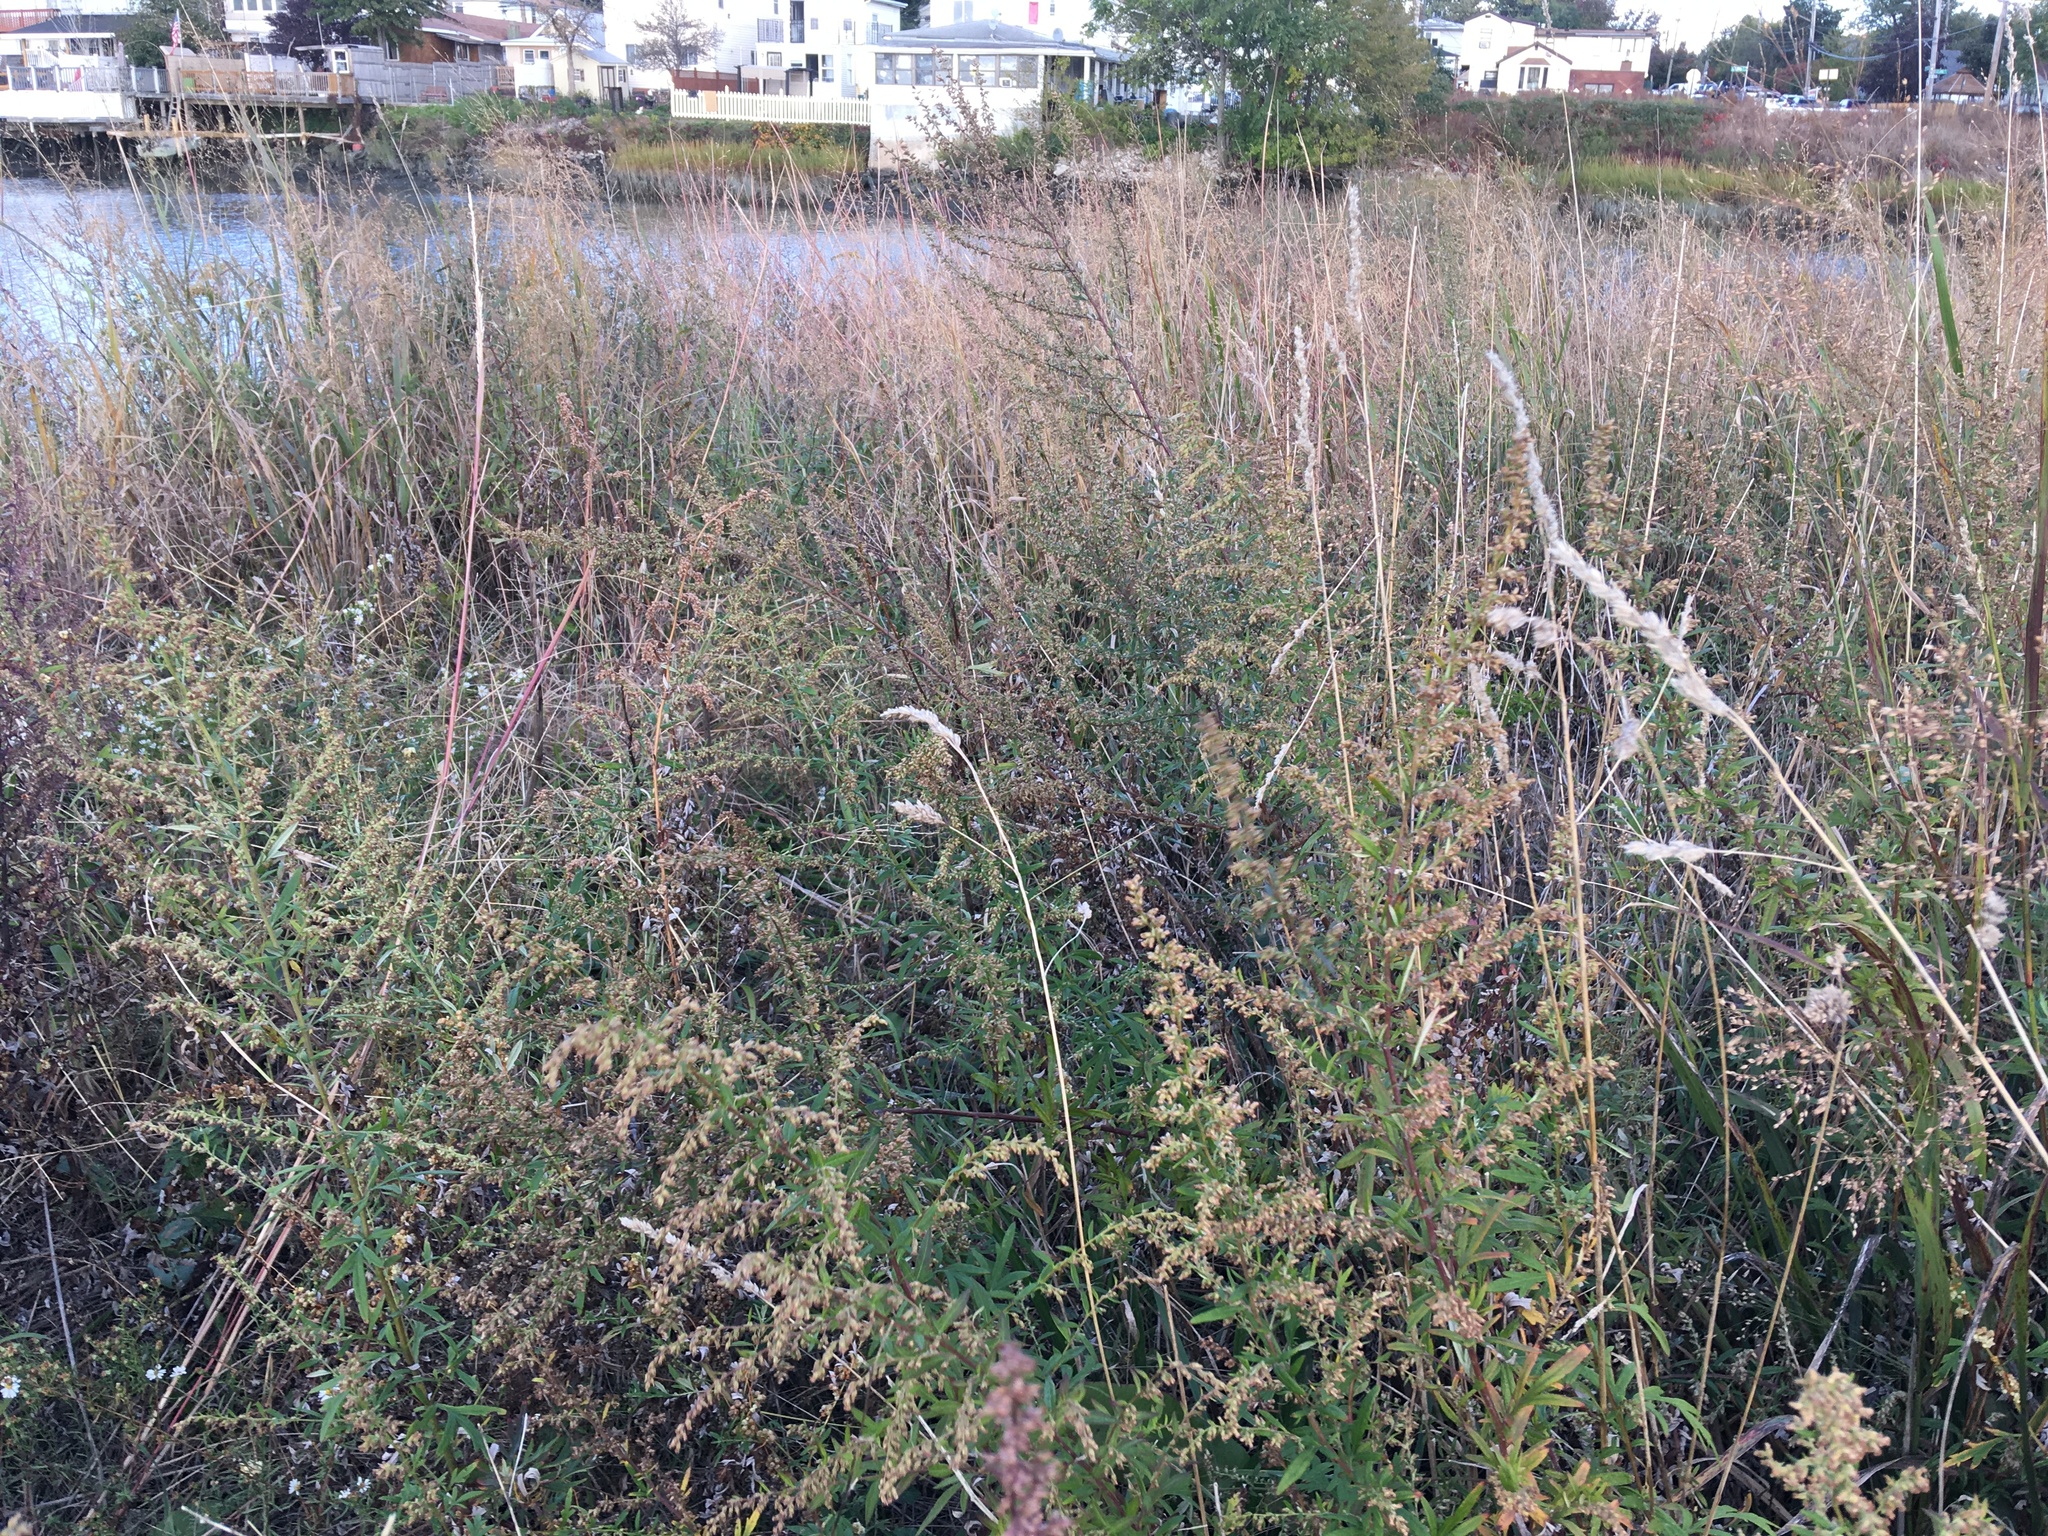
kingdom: Plantae
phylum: Tracheophyta
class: Magnoliopsida
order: Asterales
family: Asteraceae
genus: Artemisia
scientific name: Artemisia vulgaris
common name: Mugwort
